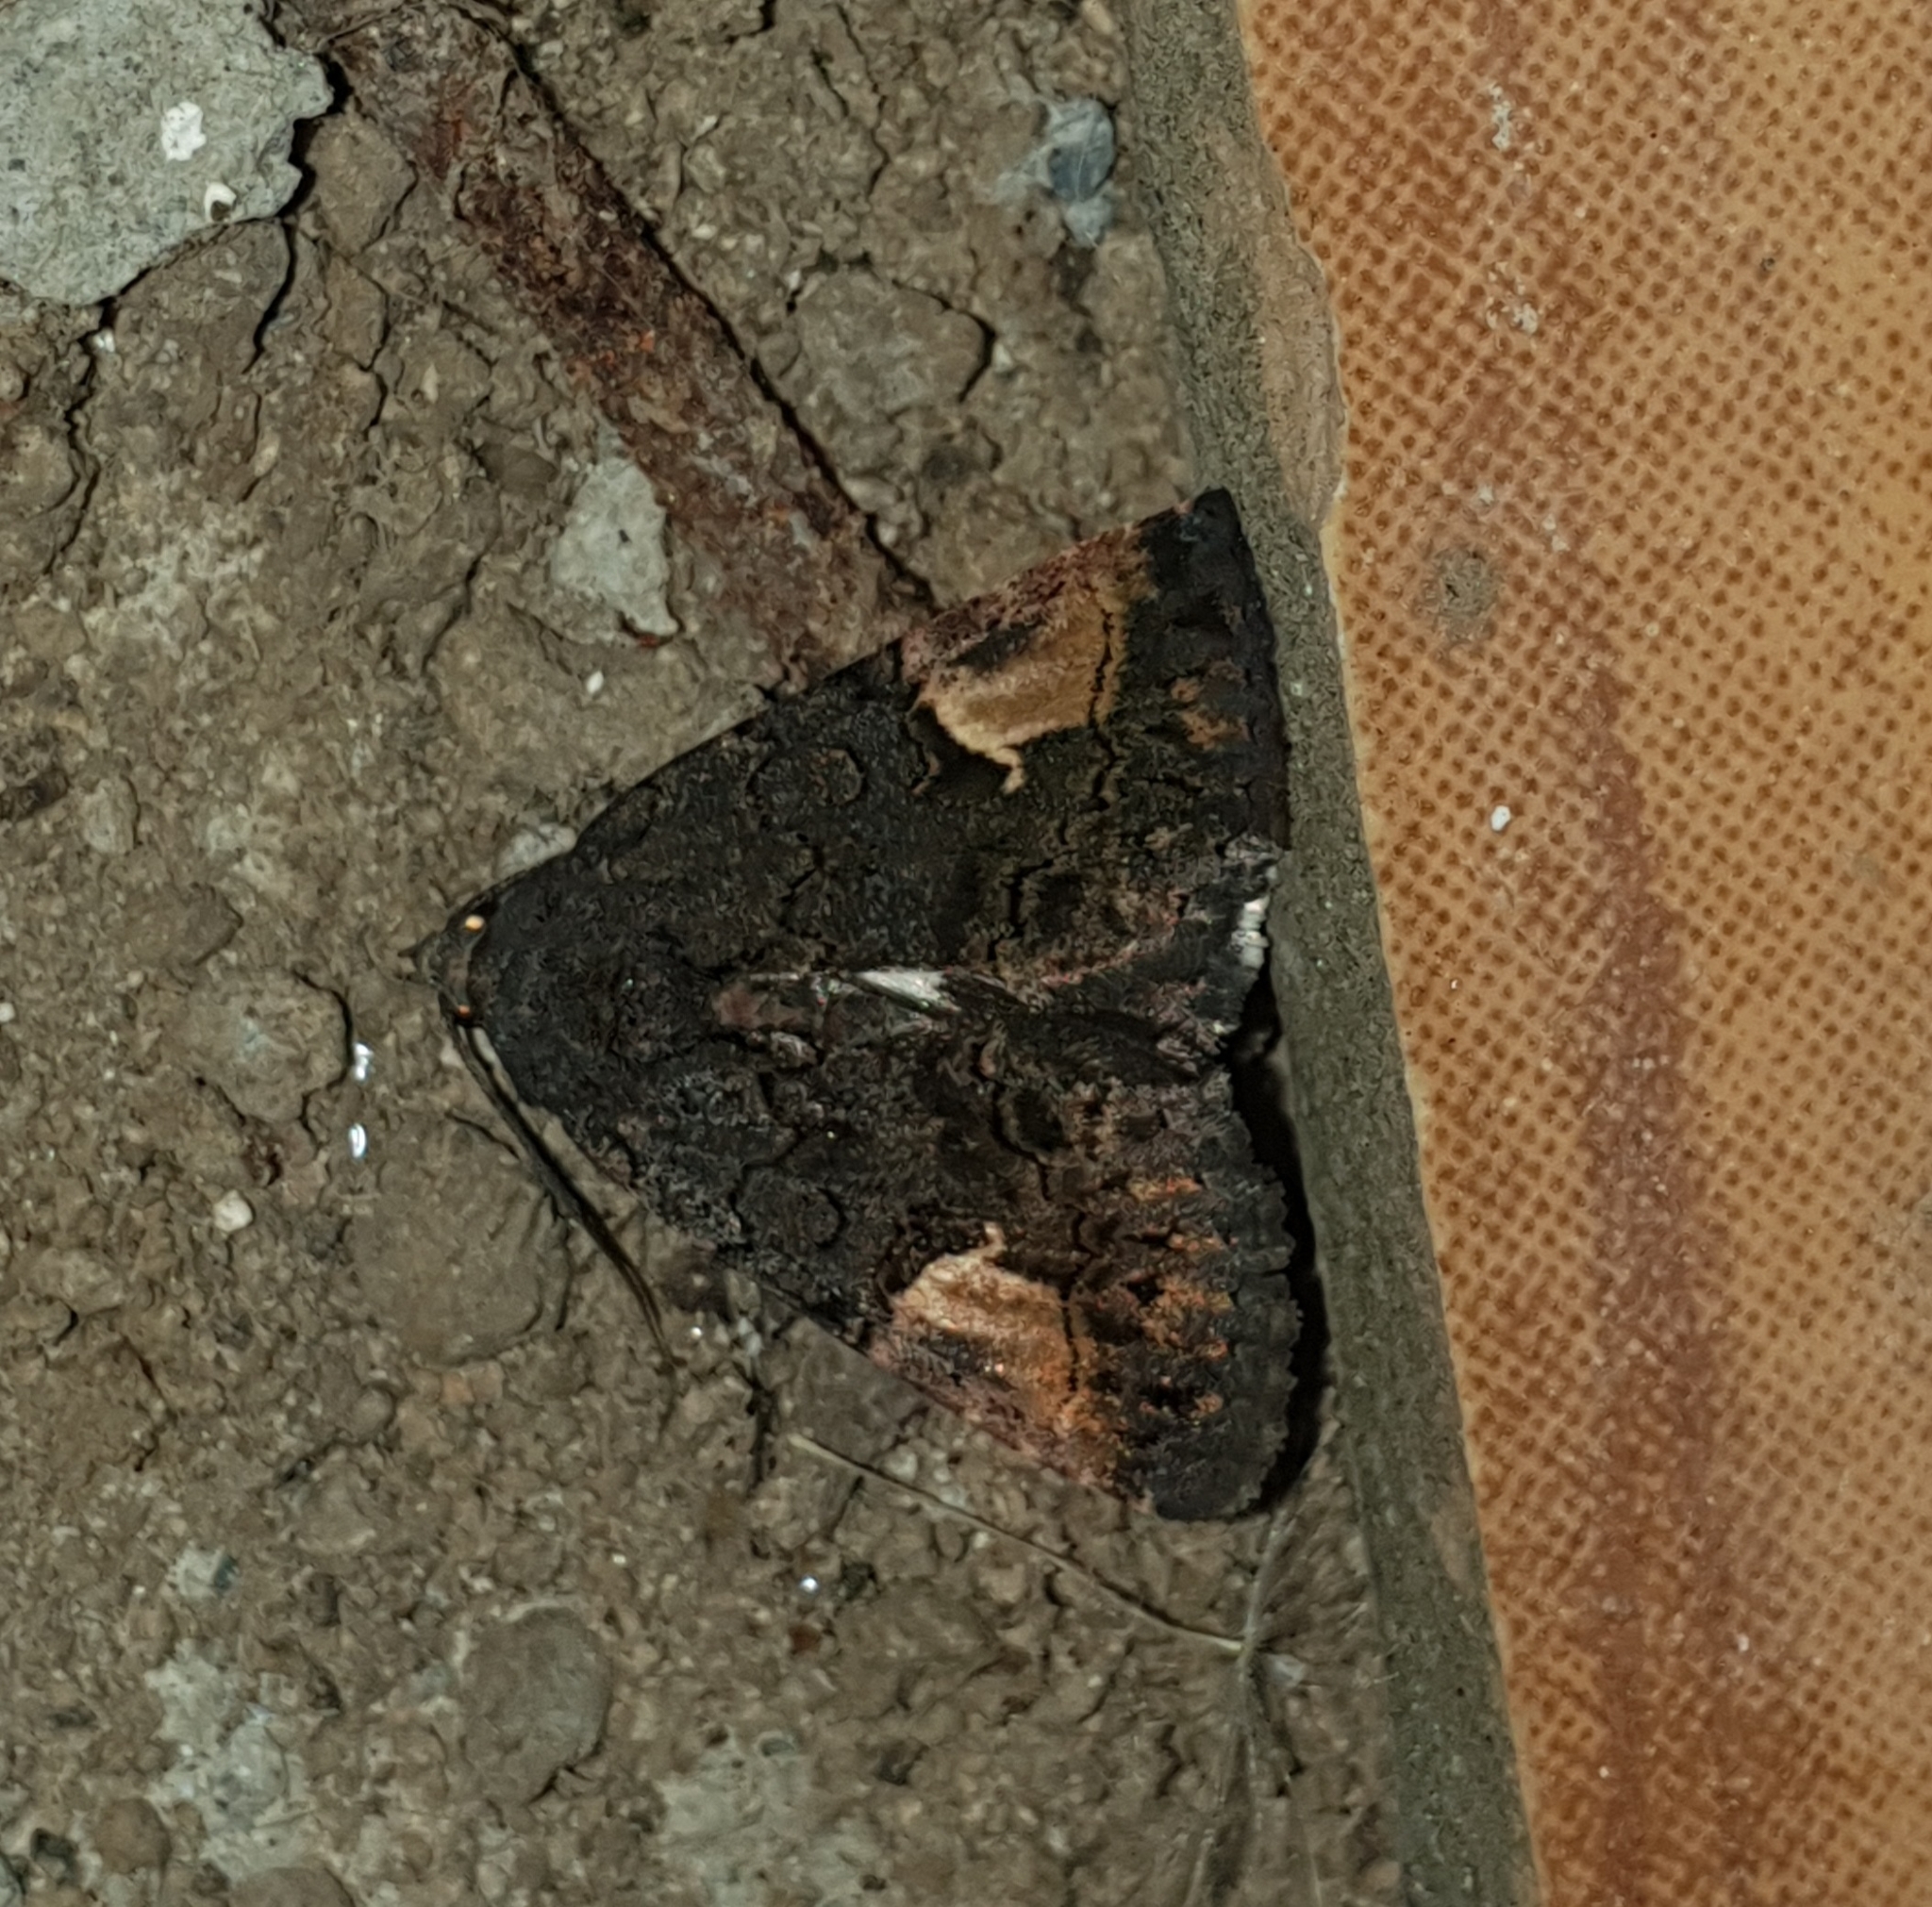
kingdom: Animalia
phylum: Arthropoda
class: Insecta
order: Lepidoptera
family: Noctuidae
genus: Aedia
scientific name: Aedia funesta
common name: The druid
